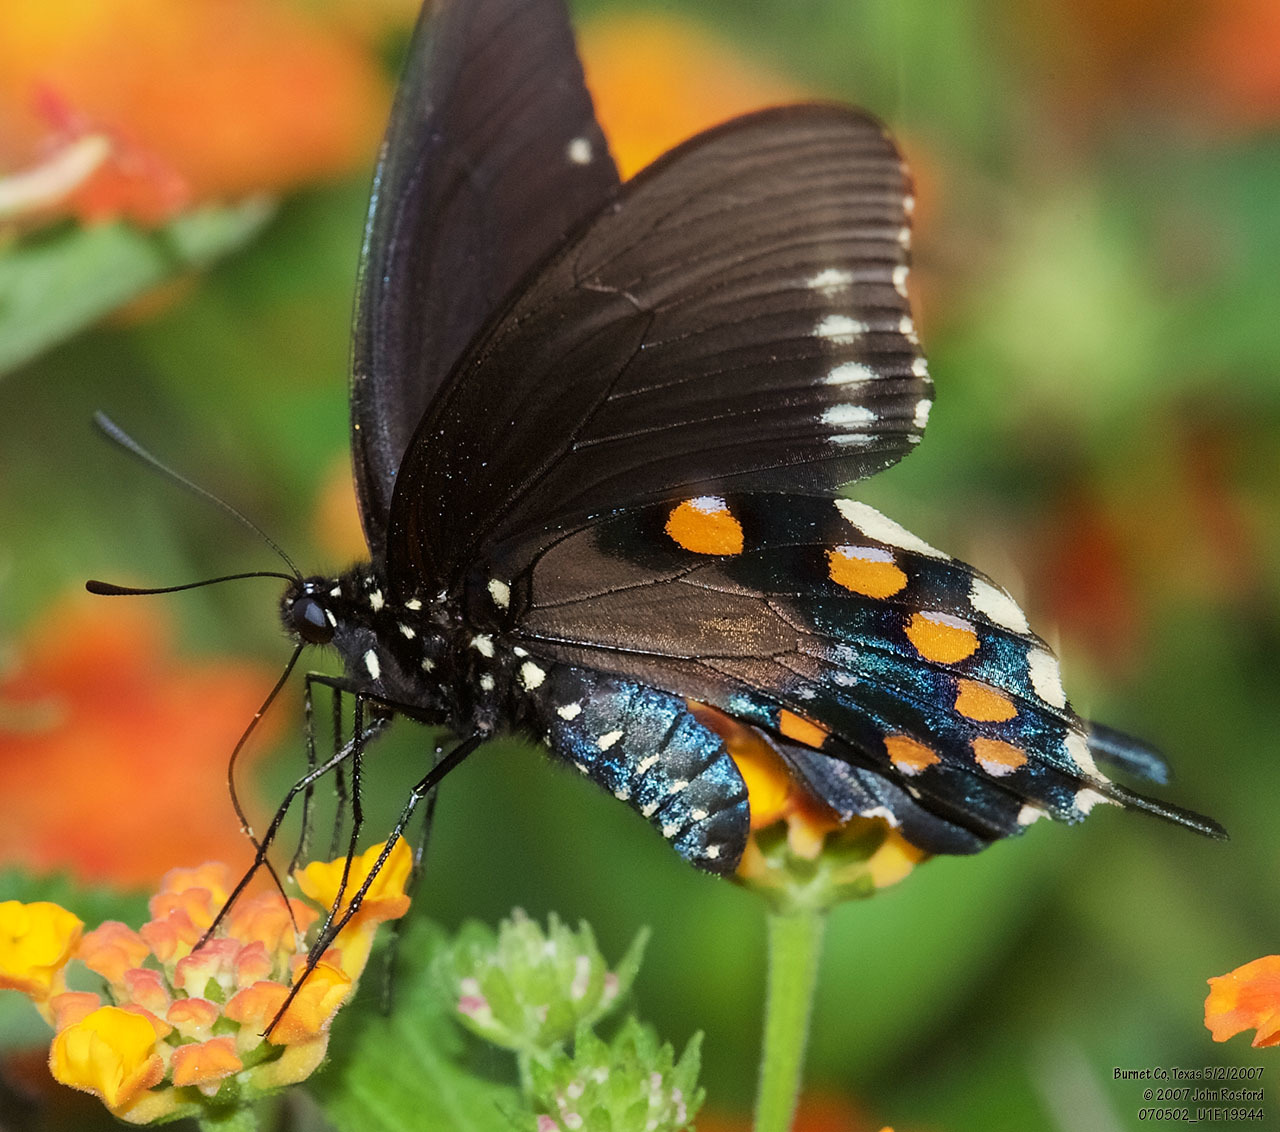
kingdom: Animalia
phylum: Arthropoda
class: Insecta
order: Lepidoptera
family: Papilionidae
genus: Battus
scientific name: Battus philenor
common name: Pipevine swallowtail
